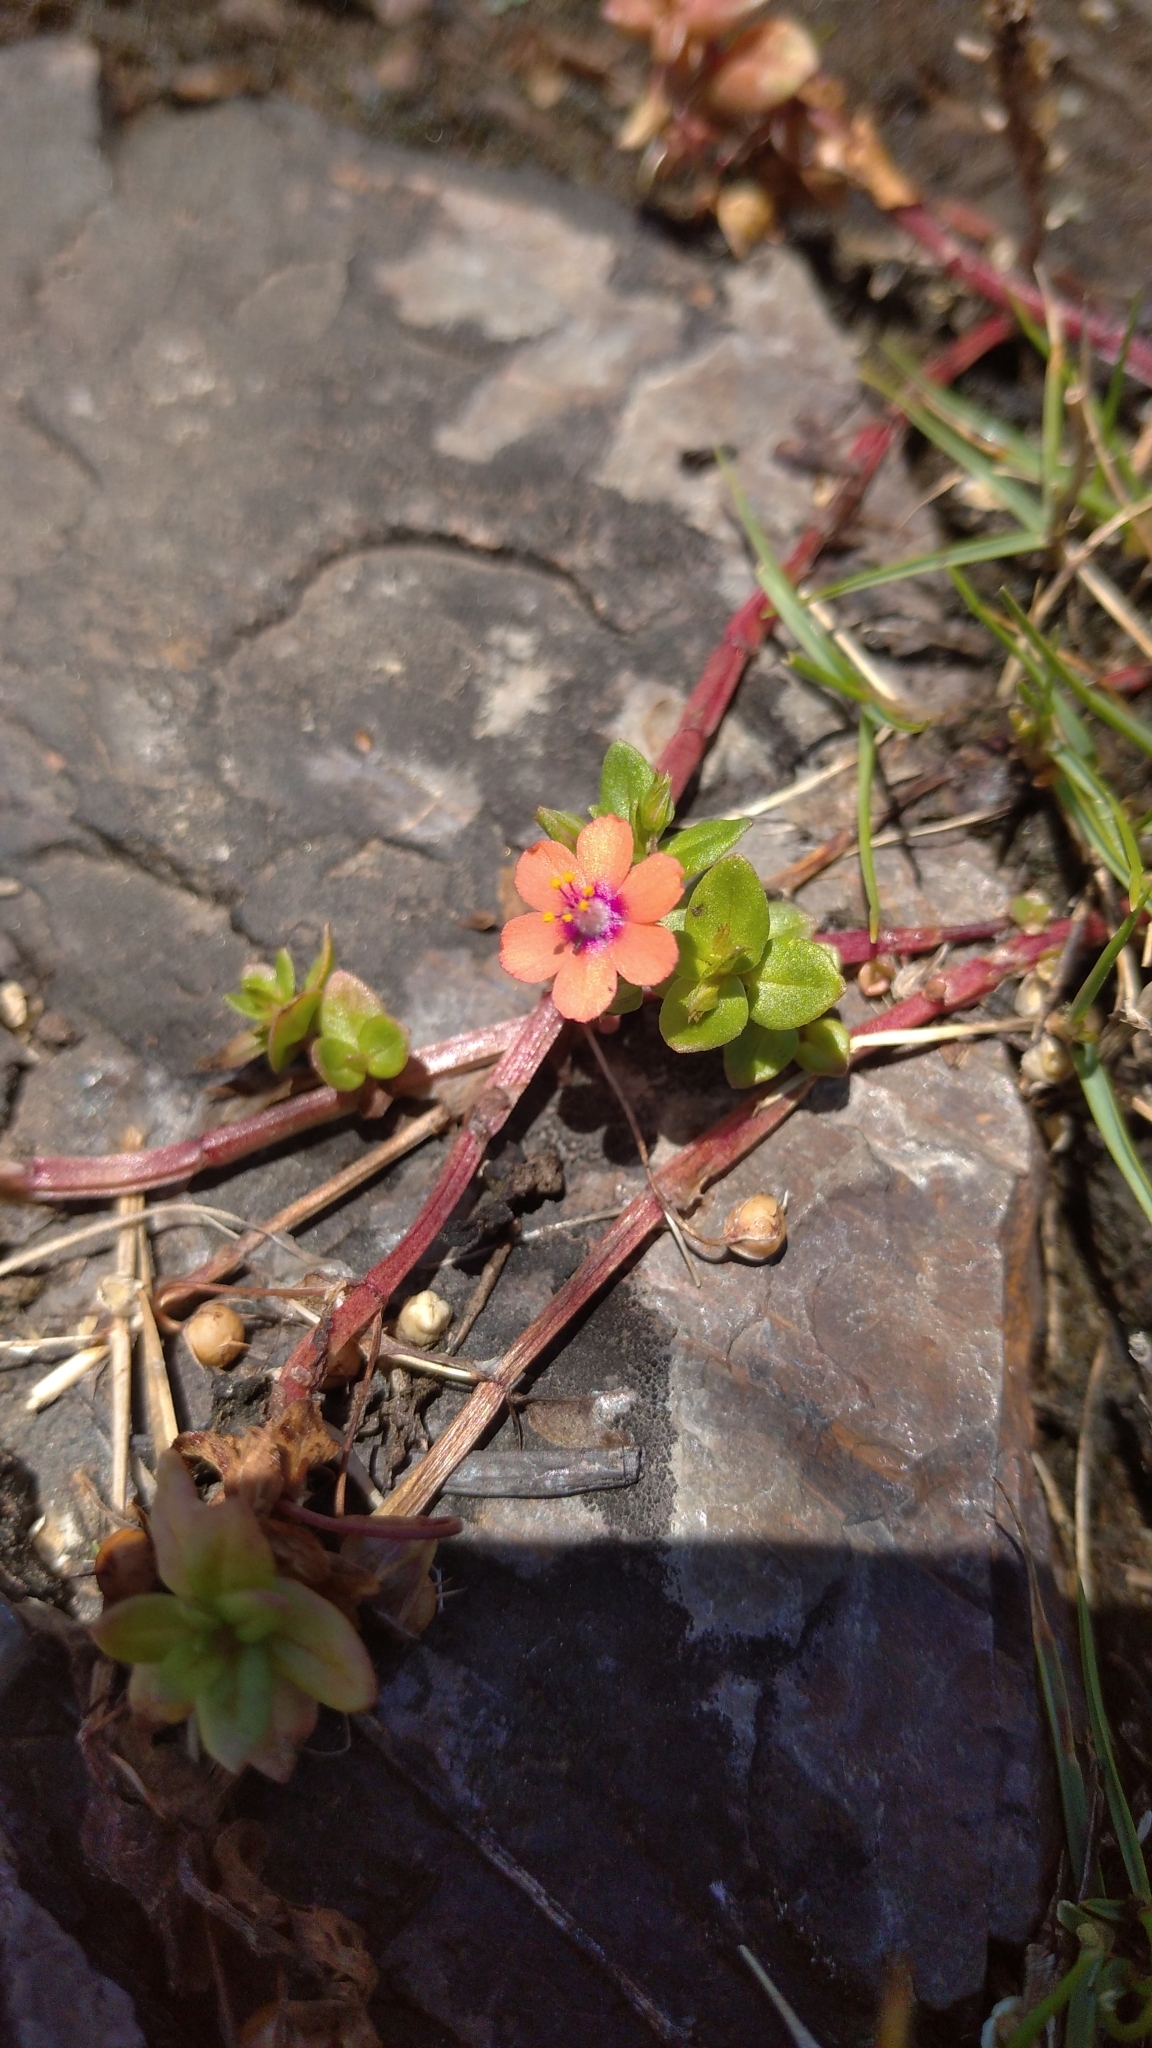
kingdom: Plantae
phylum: Tracheophyta
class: Magnoliopsida
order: Ericales
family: Primulaceae
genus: Lysimachia
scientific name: Lysimachia arvensis
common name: Scarlet pimpernel
